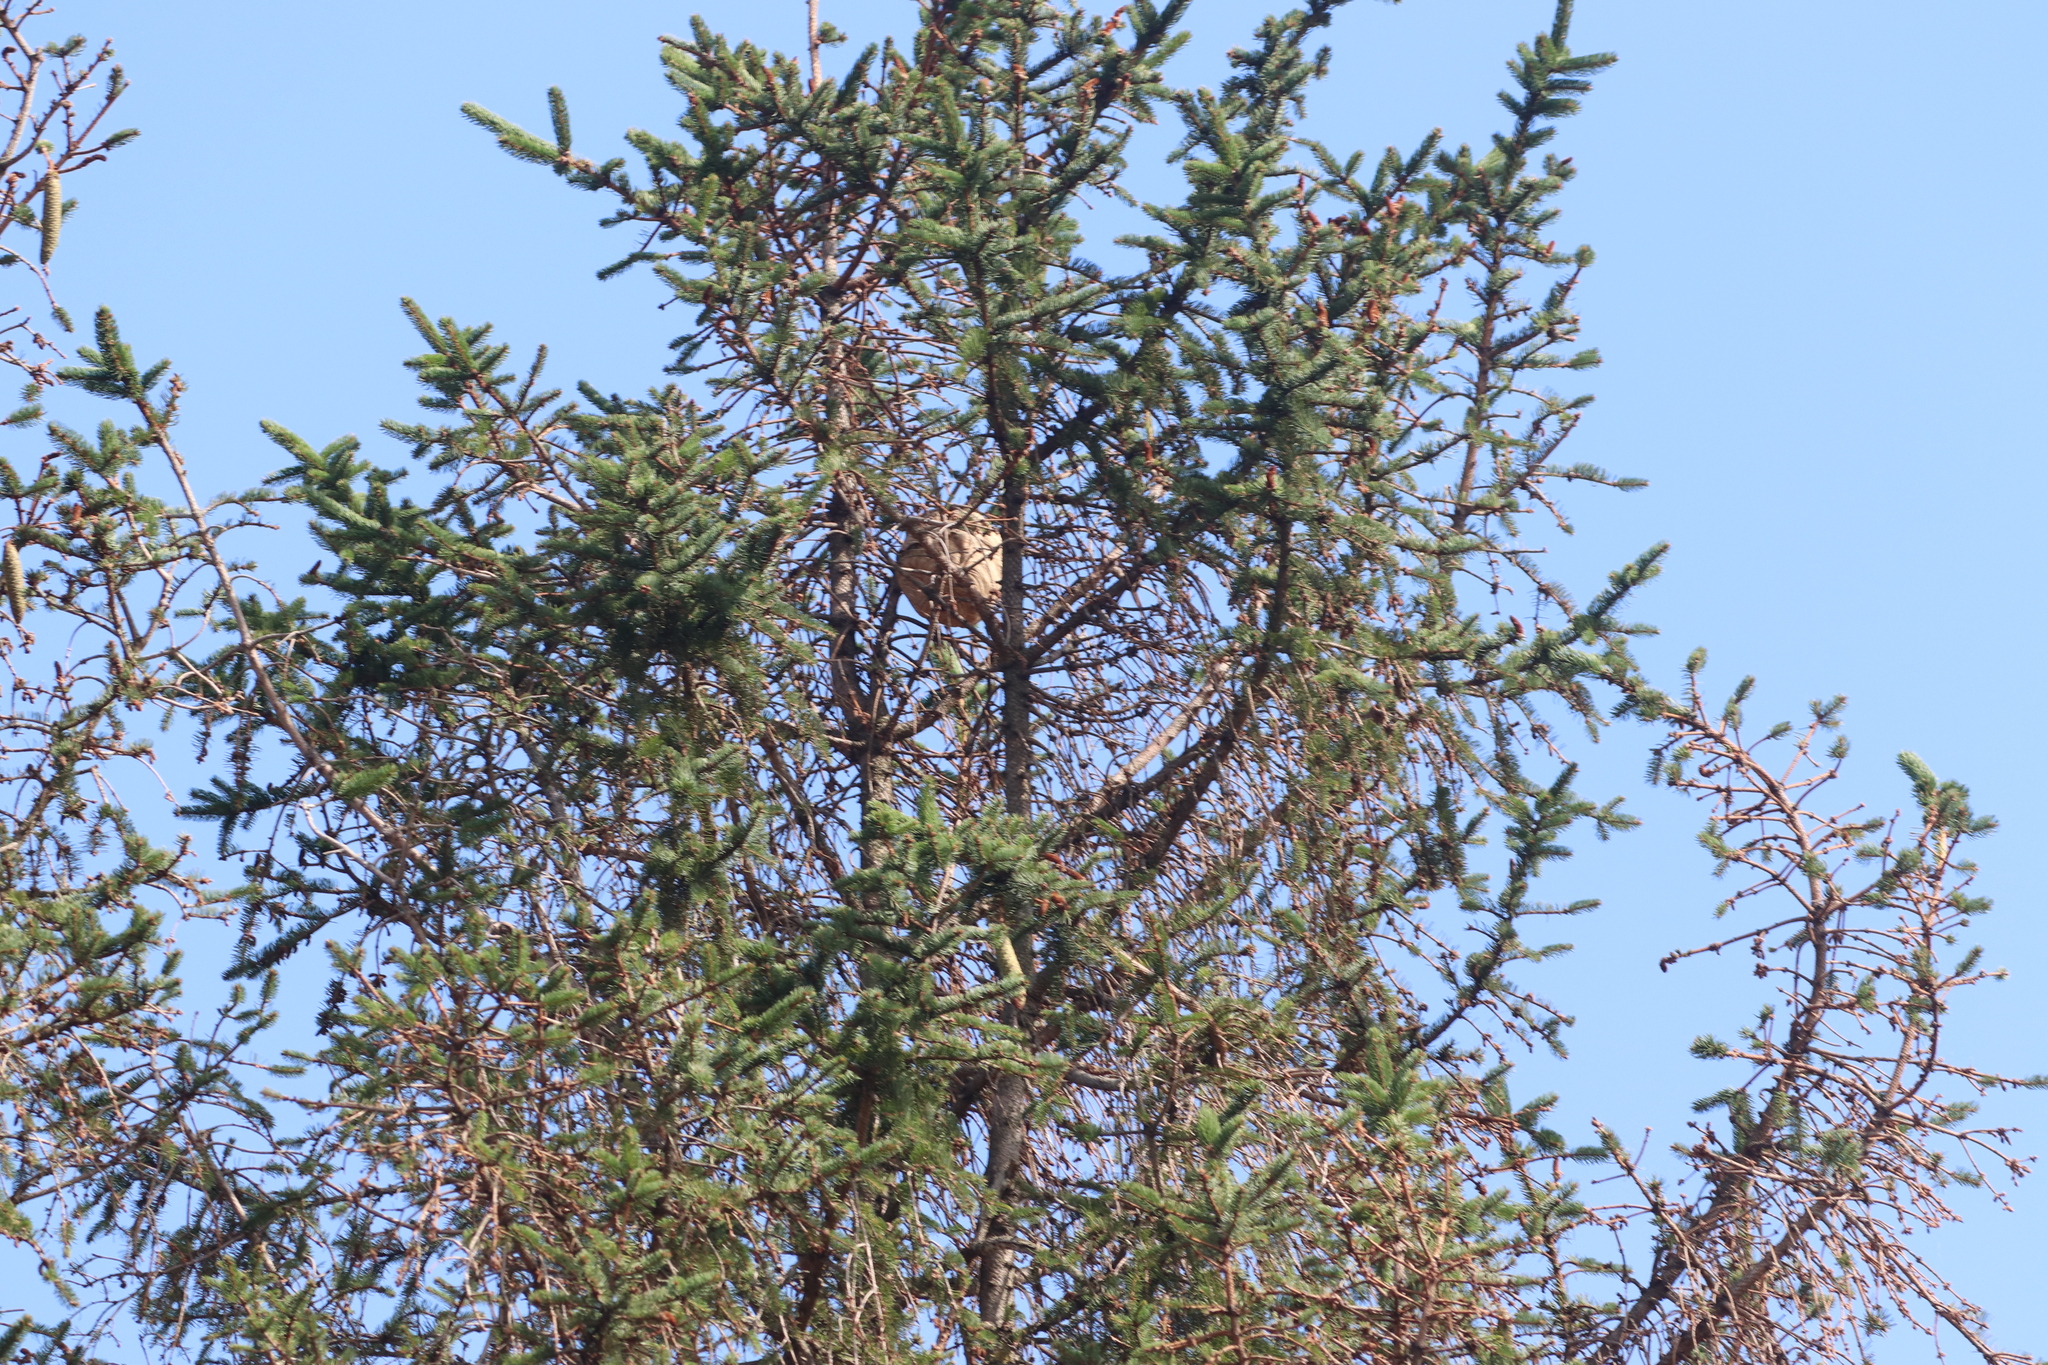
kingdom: Animalia
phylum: Arthropoda
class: Insecta
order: Hymenoptera
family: Vespidae
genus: Vespa
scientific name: Vespa velutina
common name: Asian hornet
